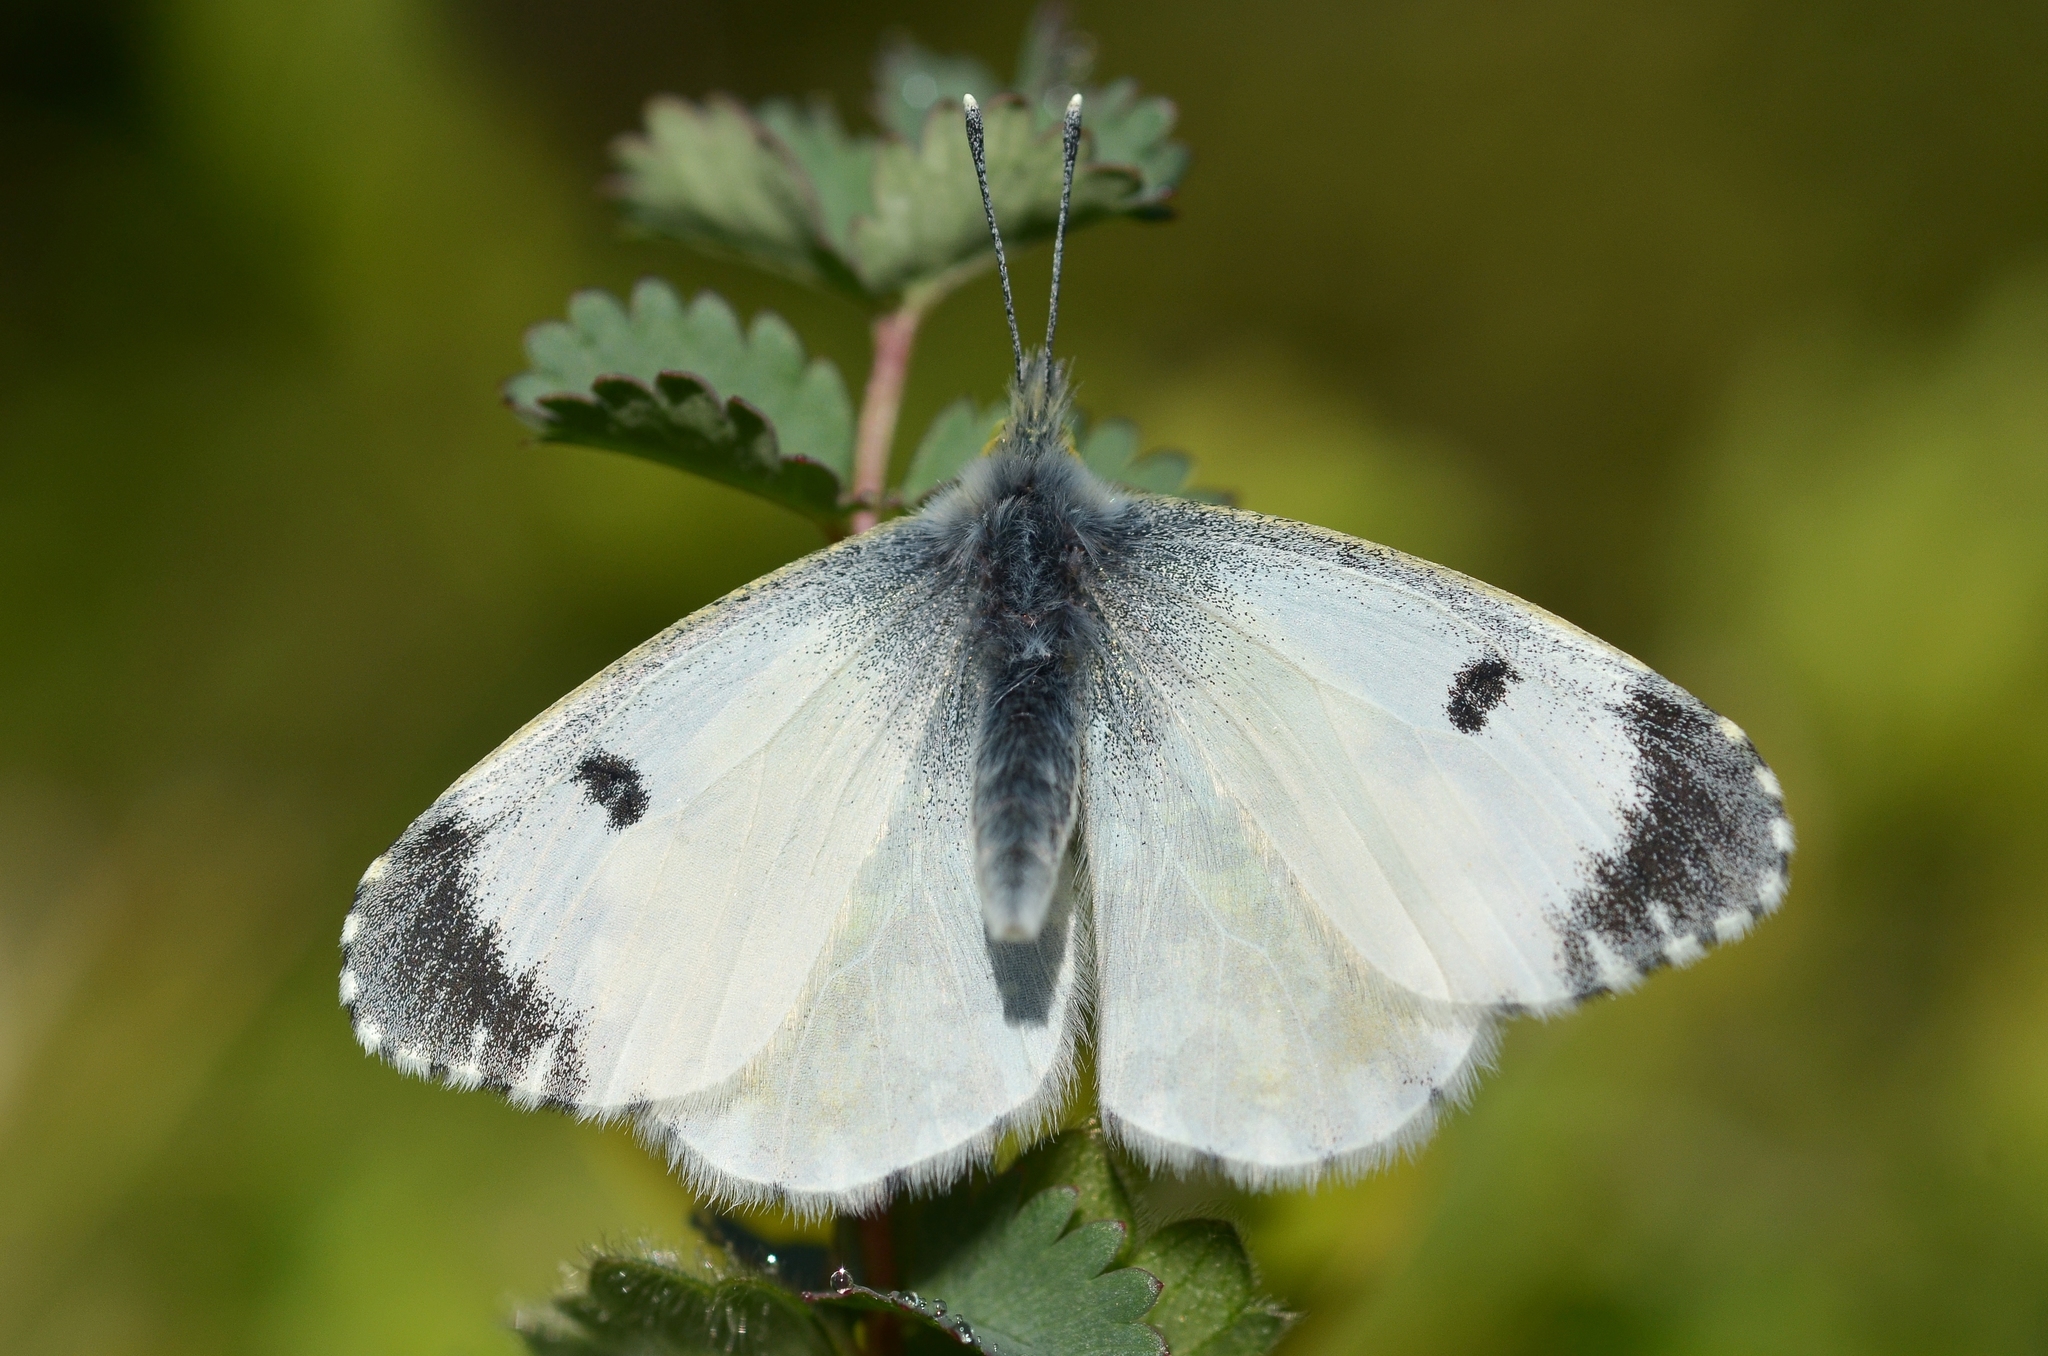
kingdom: Animalia
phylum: Arthropoda
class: Insecta
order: Lepidoptera
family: Pieridae
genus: Anthocharis
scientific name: Anthocharis cardamines
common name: Orange-tip
